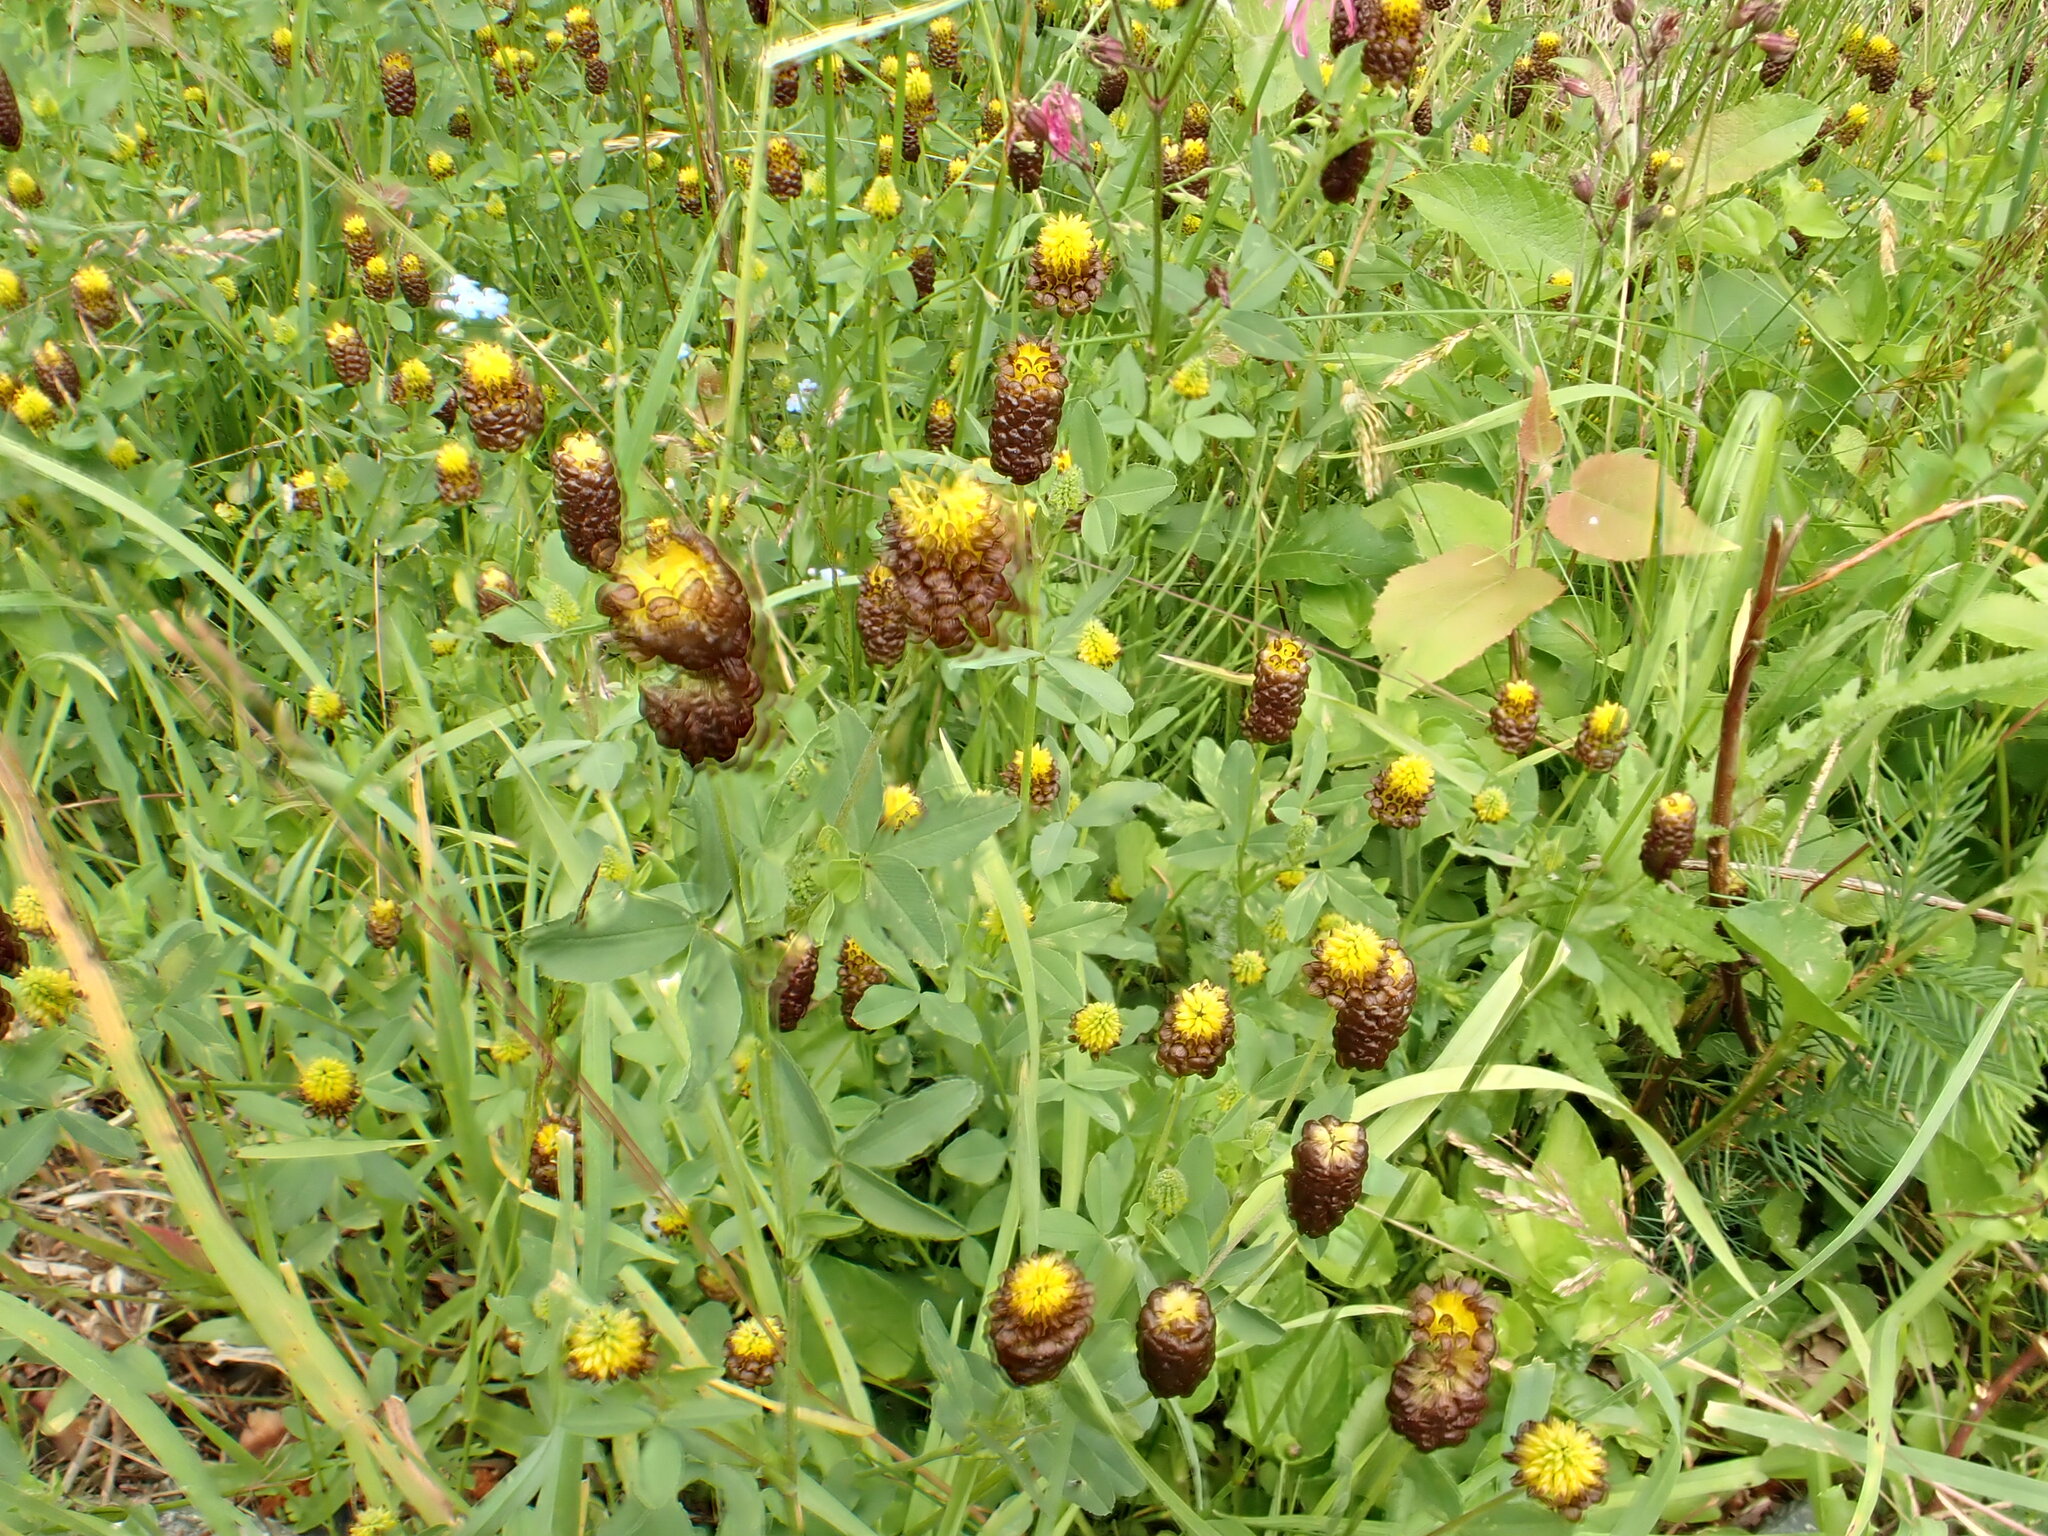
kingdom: Plantae
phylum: Tracheophyta
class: Magnoliopsida
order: Fabales
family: Fabaceae
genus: Trifolium
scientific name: Trifolium spadiceum
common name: Brown moor clover
